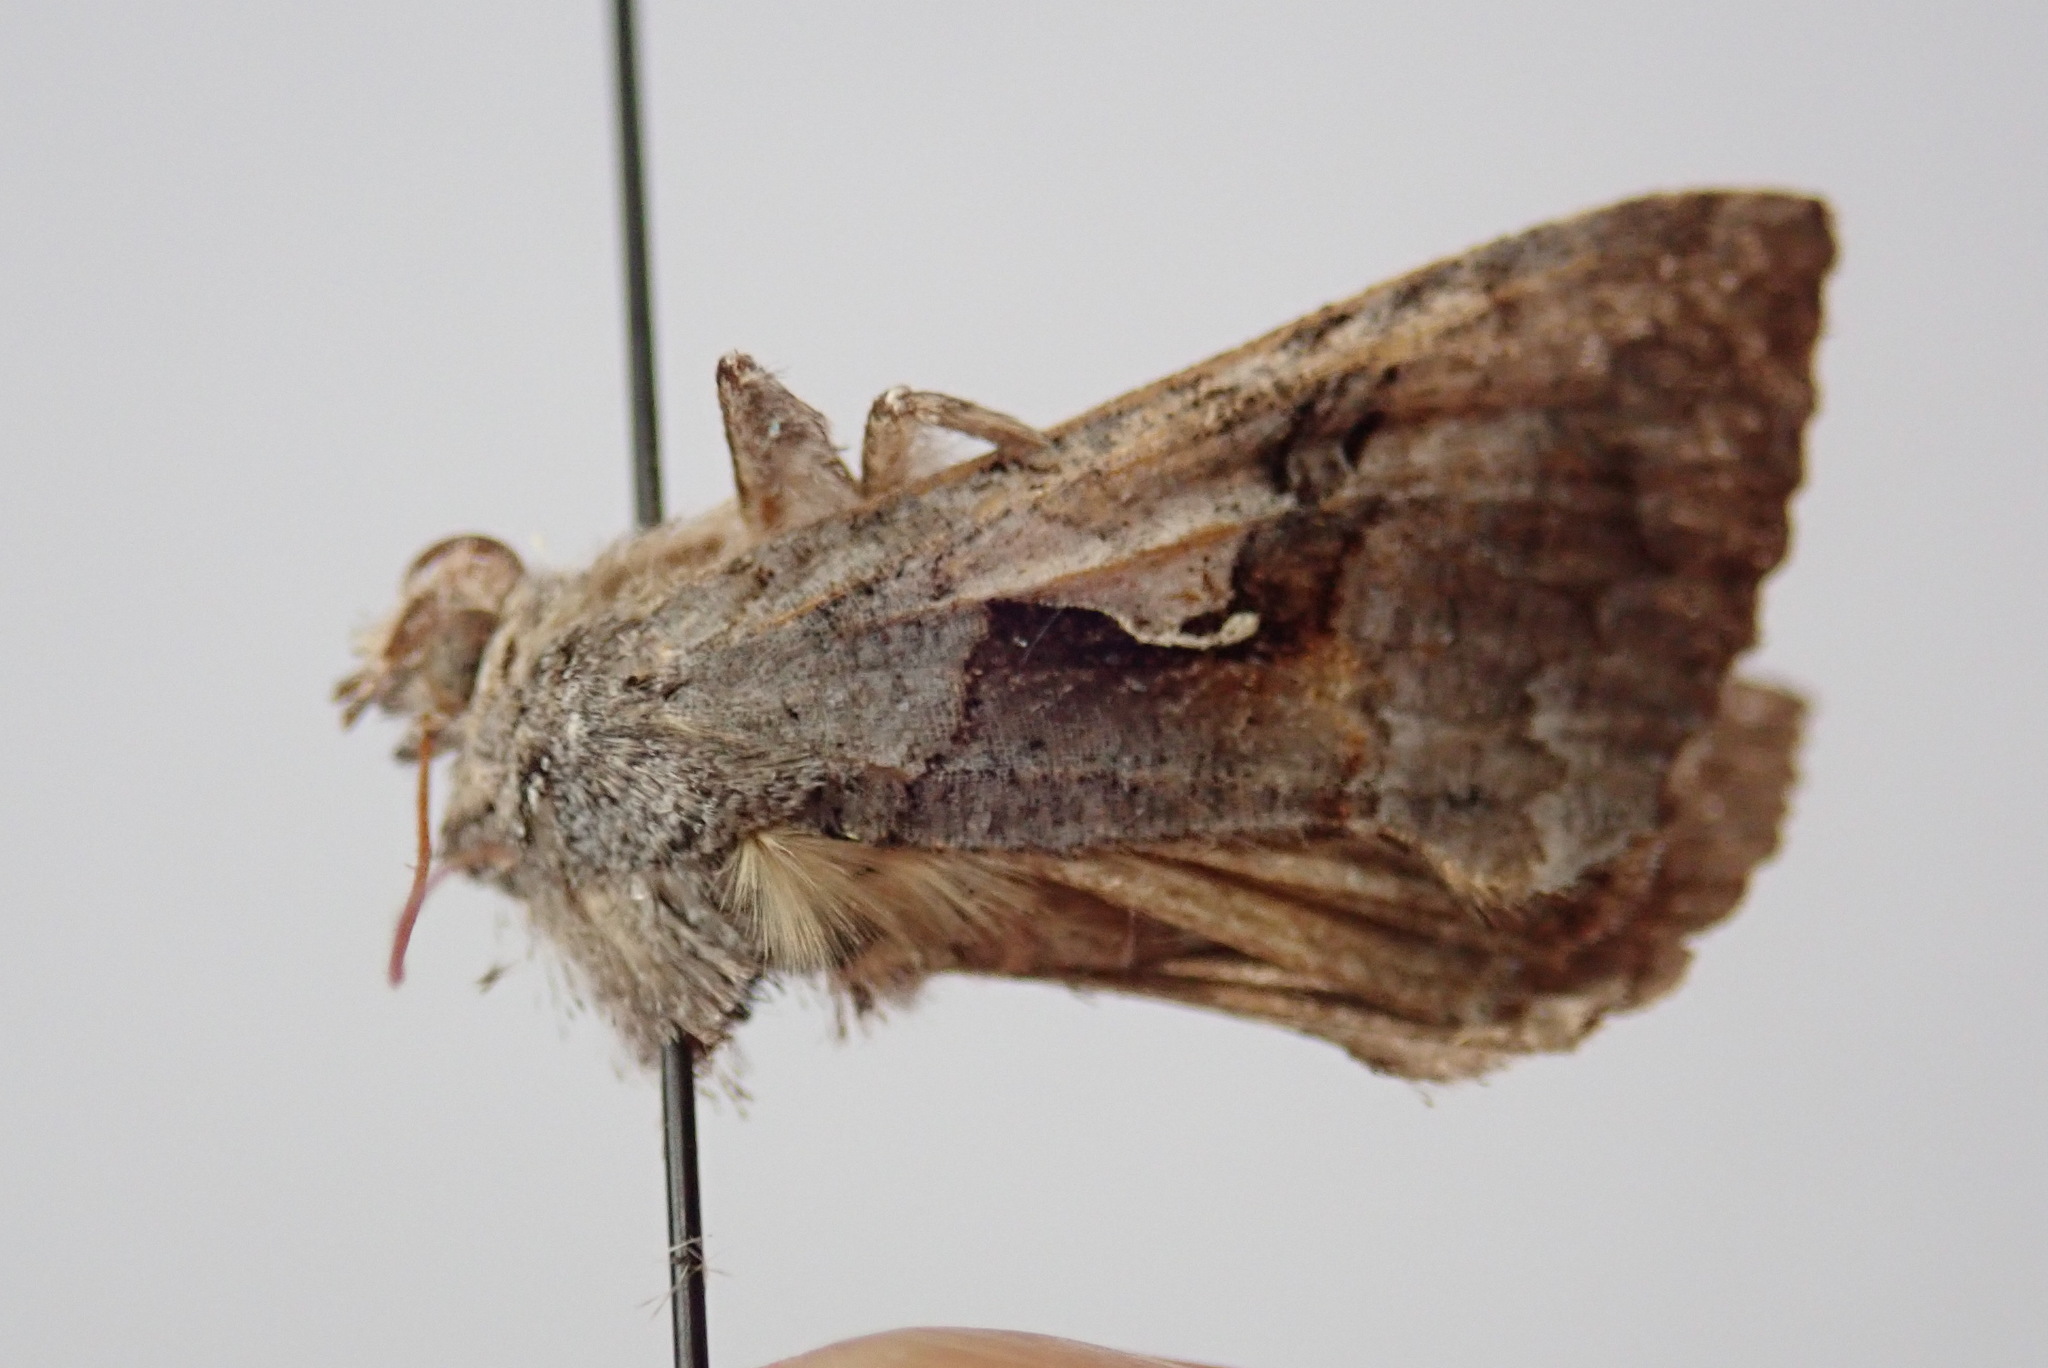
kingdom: Animalia
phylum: Arthropoda
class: Insecta
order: Lepidoptera
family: Noctuidae
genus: Syngrapha
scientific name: Syngrapha epigaea
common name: Epigaea looper moth
